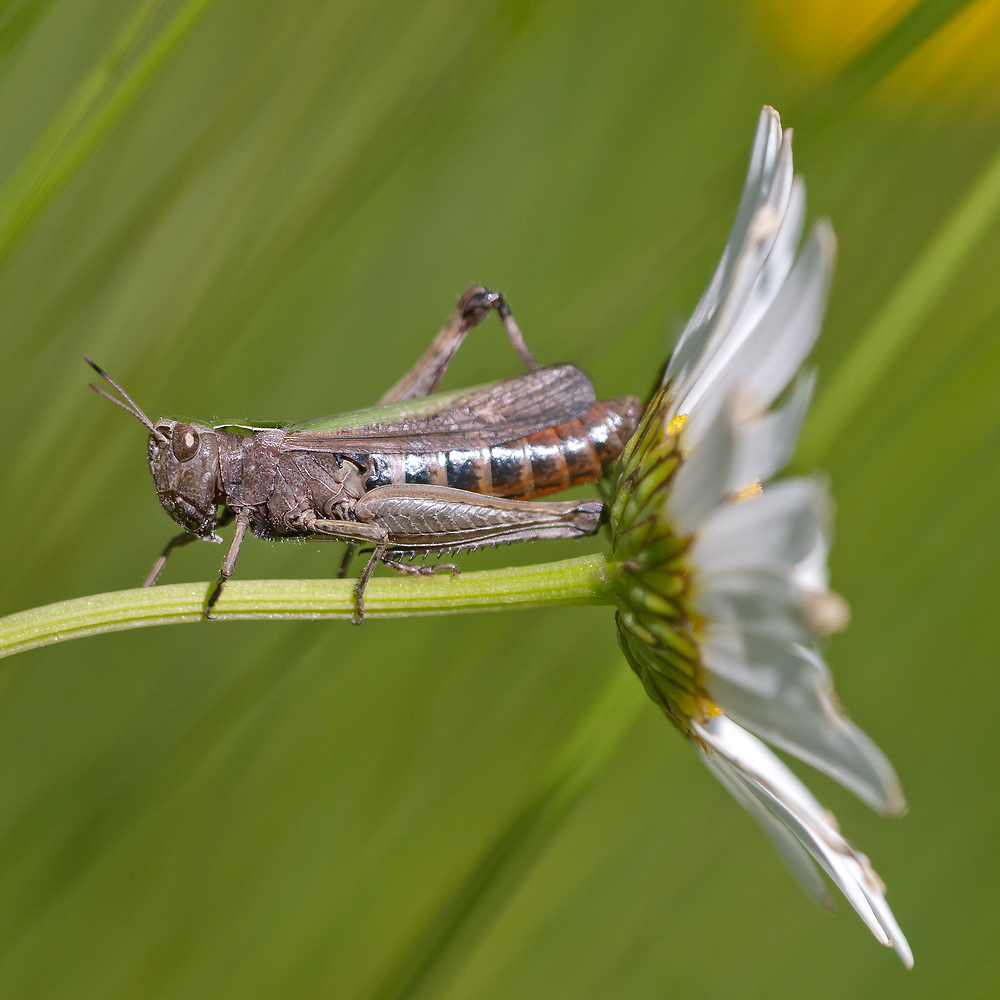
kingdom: Animalia
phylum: Arthropoda
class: Insecta
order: Orthoptera
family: Acrididae
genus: Omocestus
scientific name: Omocestus rufipes
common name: Woodland grasshopper
